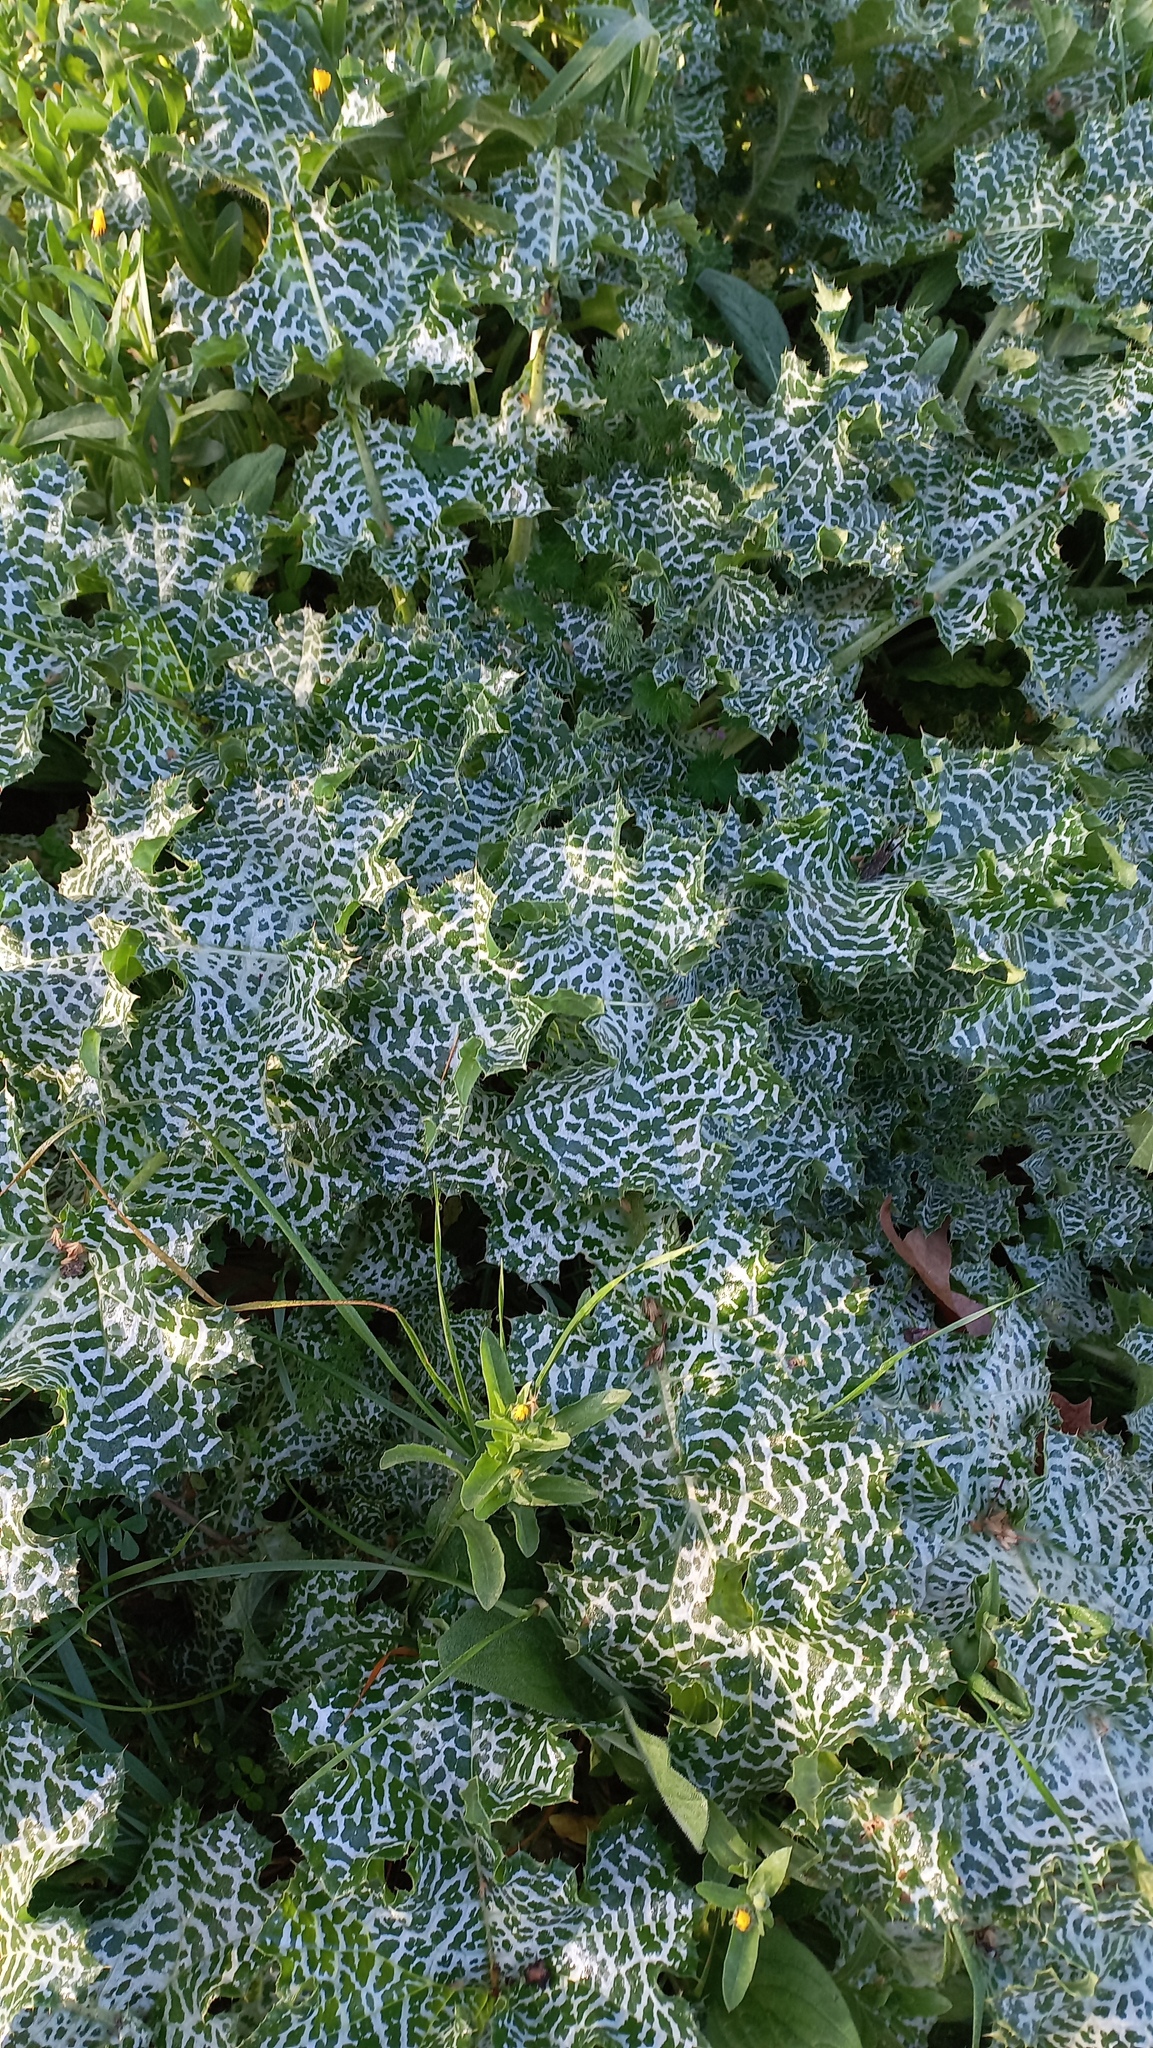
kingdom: Plantae
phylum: Tracheophyta
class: Magnoliopsida
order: Asterales
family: Asteraceae
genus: Silybum
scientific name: Silybum marianum
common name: Milk thistle
